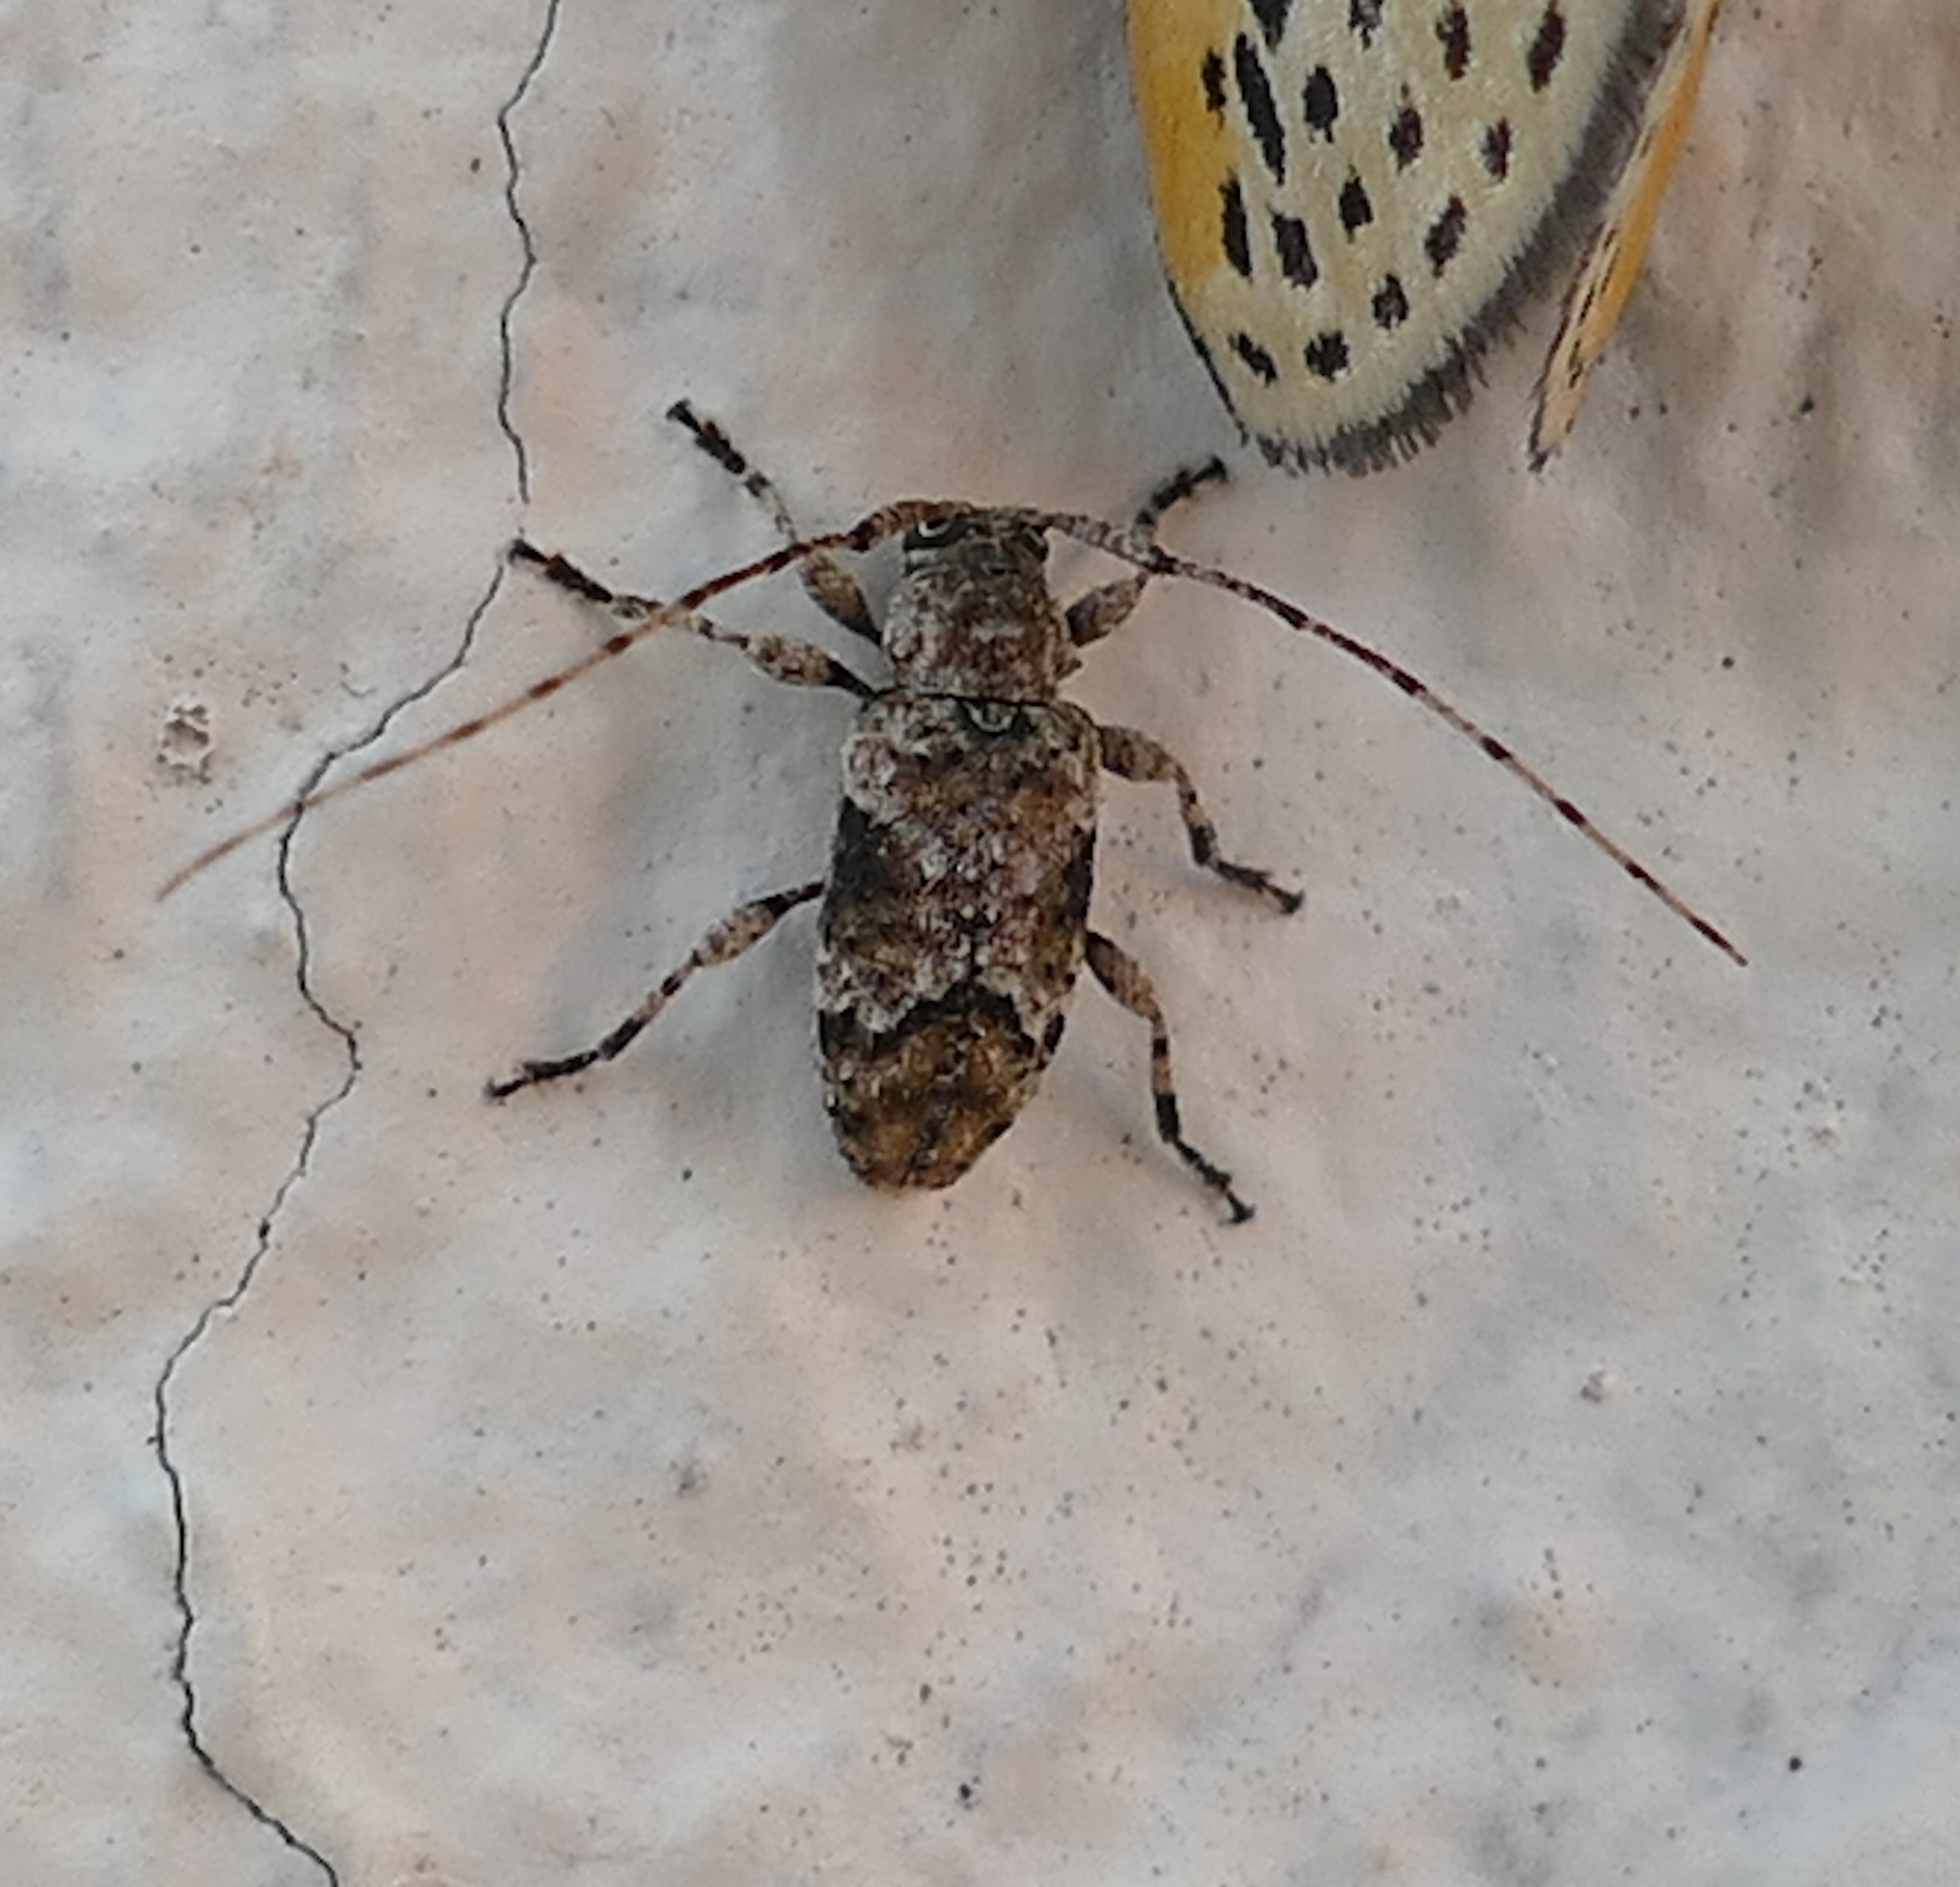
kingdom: Animalia
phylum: Arthropoda
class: Insecta
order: Coleoptera
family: Cerambycidae
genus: Sternidius
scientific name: Sternidius mimeticus
